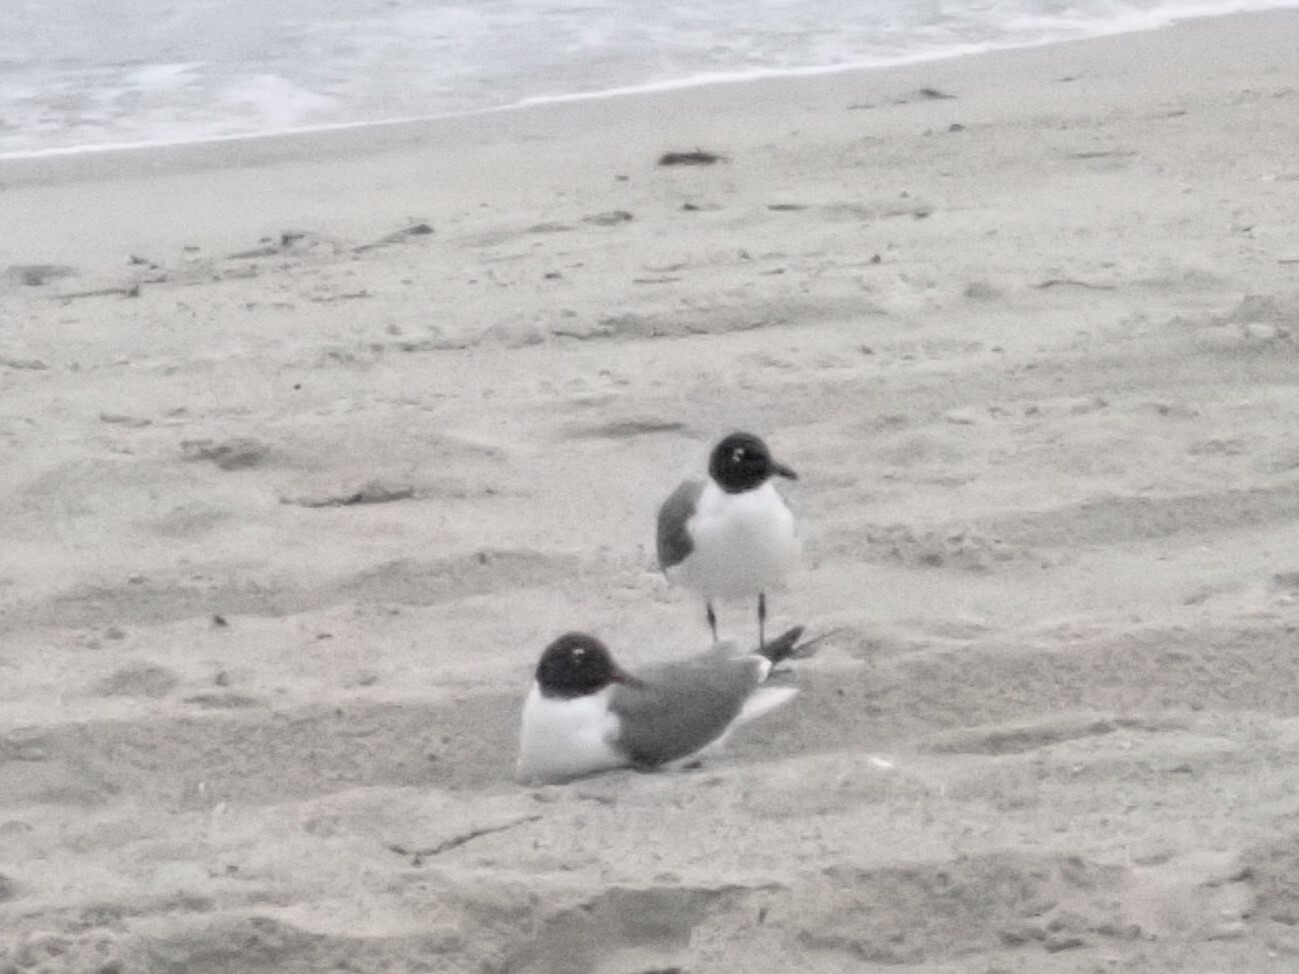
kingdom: Animalia
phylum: Chordata
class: Aves
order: Charadriiformes
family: Laridae
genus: Leucophaeus
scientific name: Leucophaeus atricilla
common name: Laughing gull
